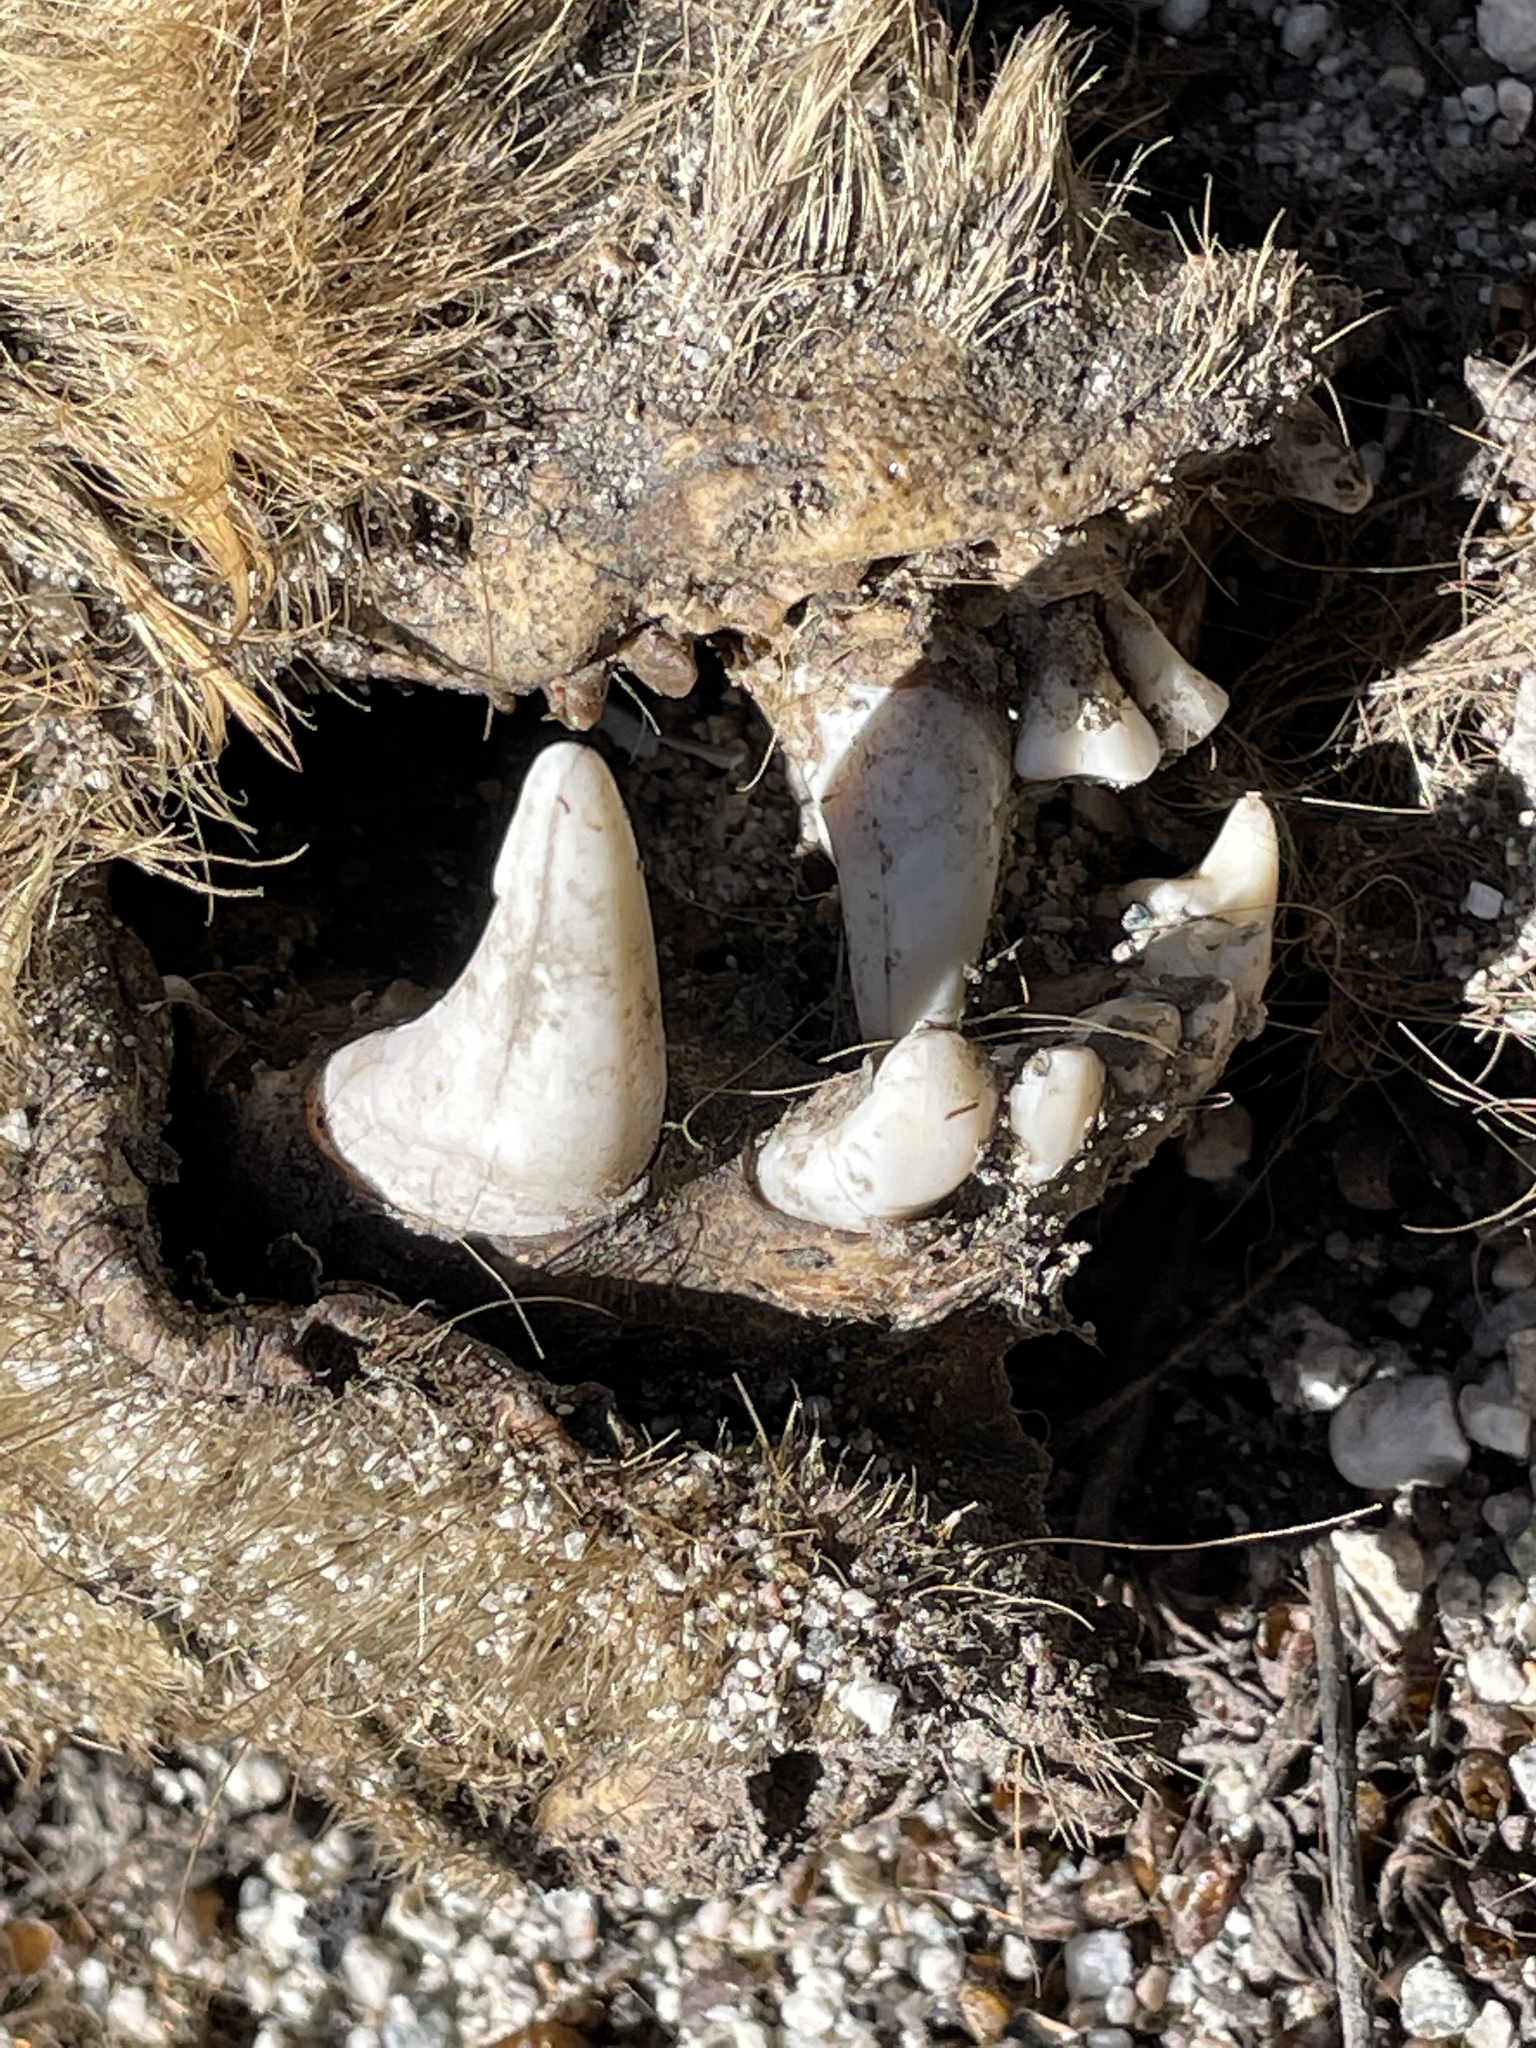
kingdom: Animalia
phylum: Chordata
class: Mammalia
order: Carnivora
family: Ursidae
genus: Ursus
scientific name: Ursus americanus
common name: American black bear
